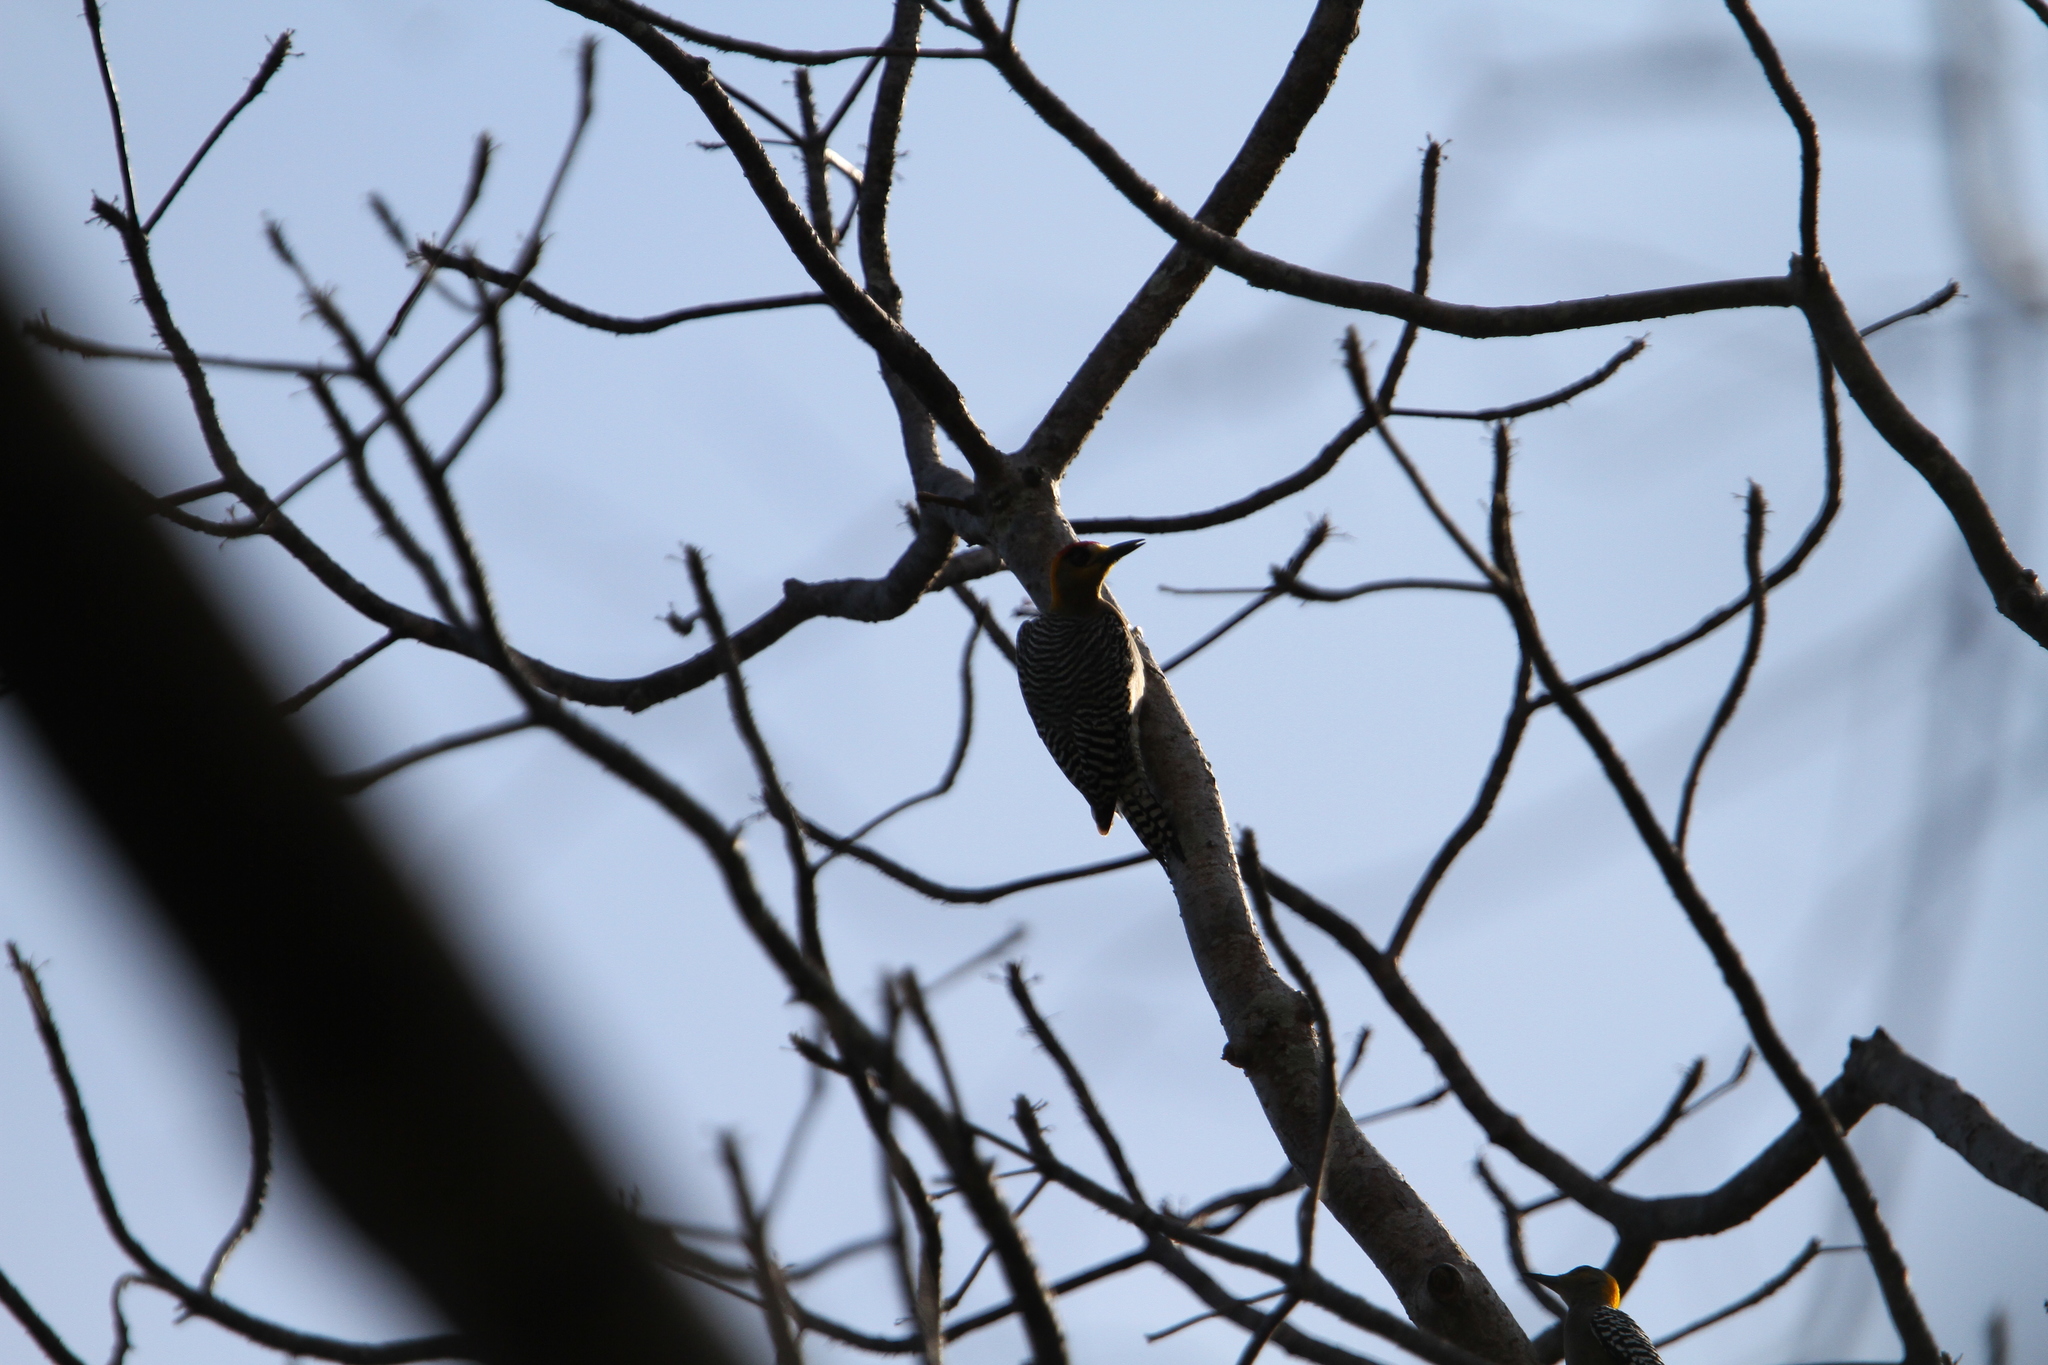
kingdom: Animalia
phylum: Chordata
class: Aves
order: Piciformes
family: Picidae
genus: Melanerpes
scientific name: Melanerpes chrysogenys
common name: Golden-cheeked woodpecker
